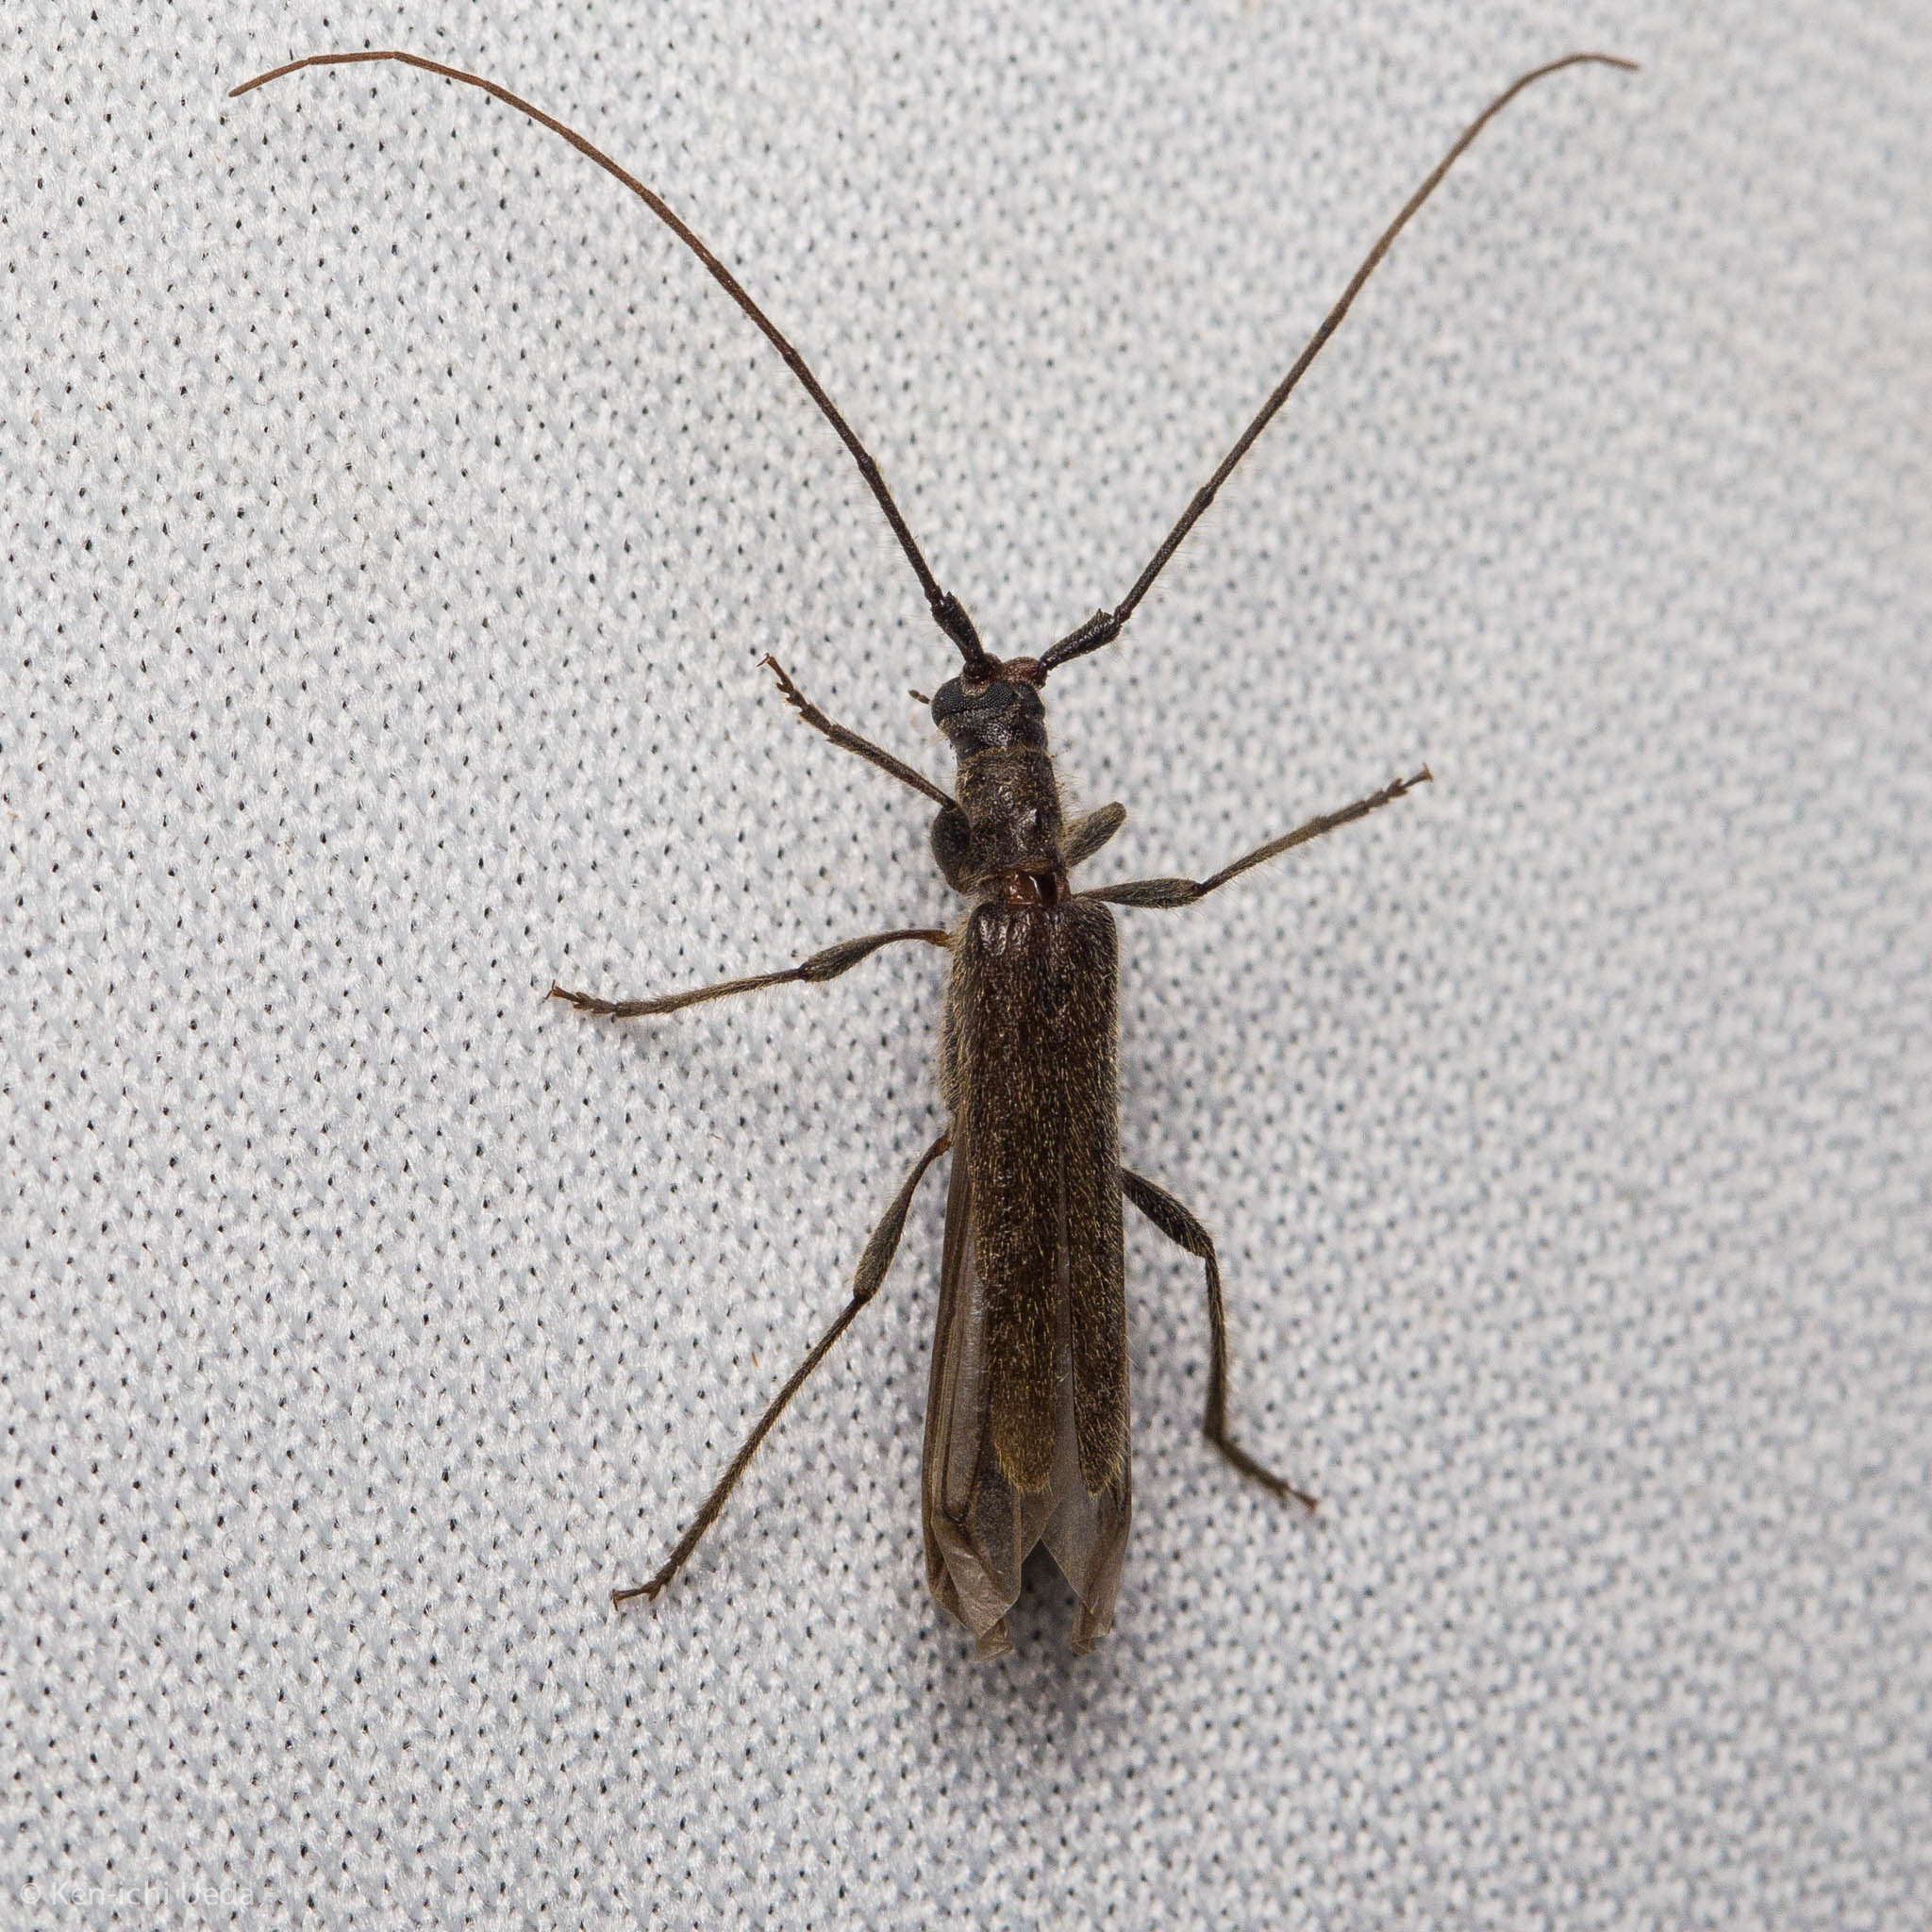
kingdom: Animalia
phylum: Arthropoda
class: Insecta
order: Coleoptera
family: Cerambycidae
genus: Styloxus
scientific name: Styloxus fulleri
